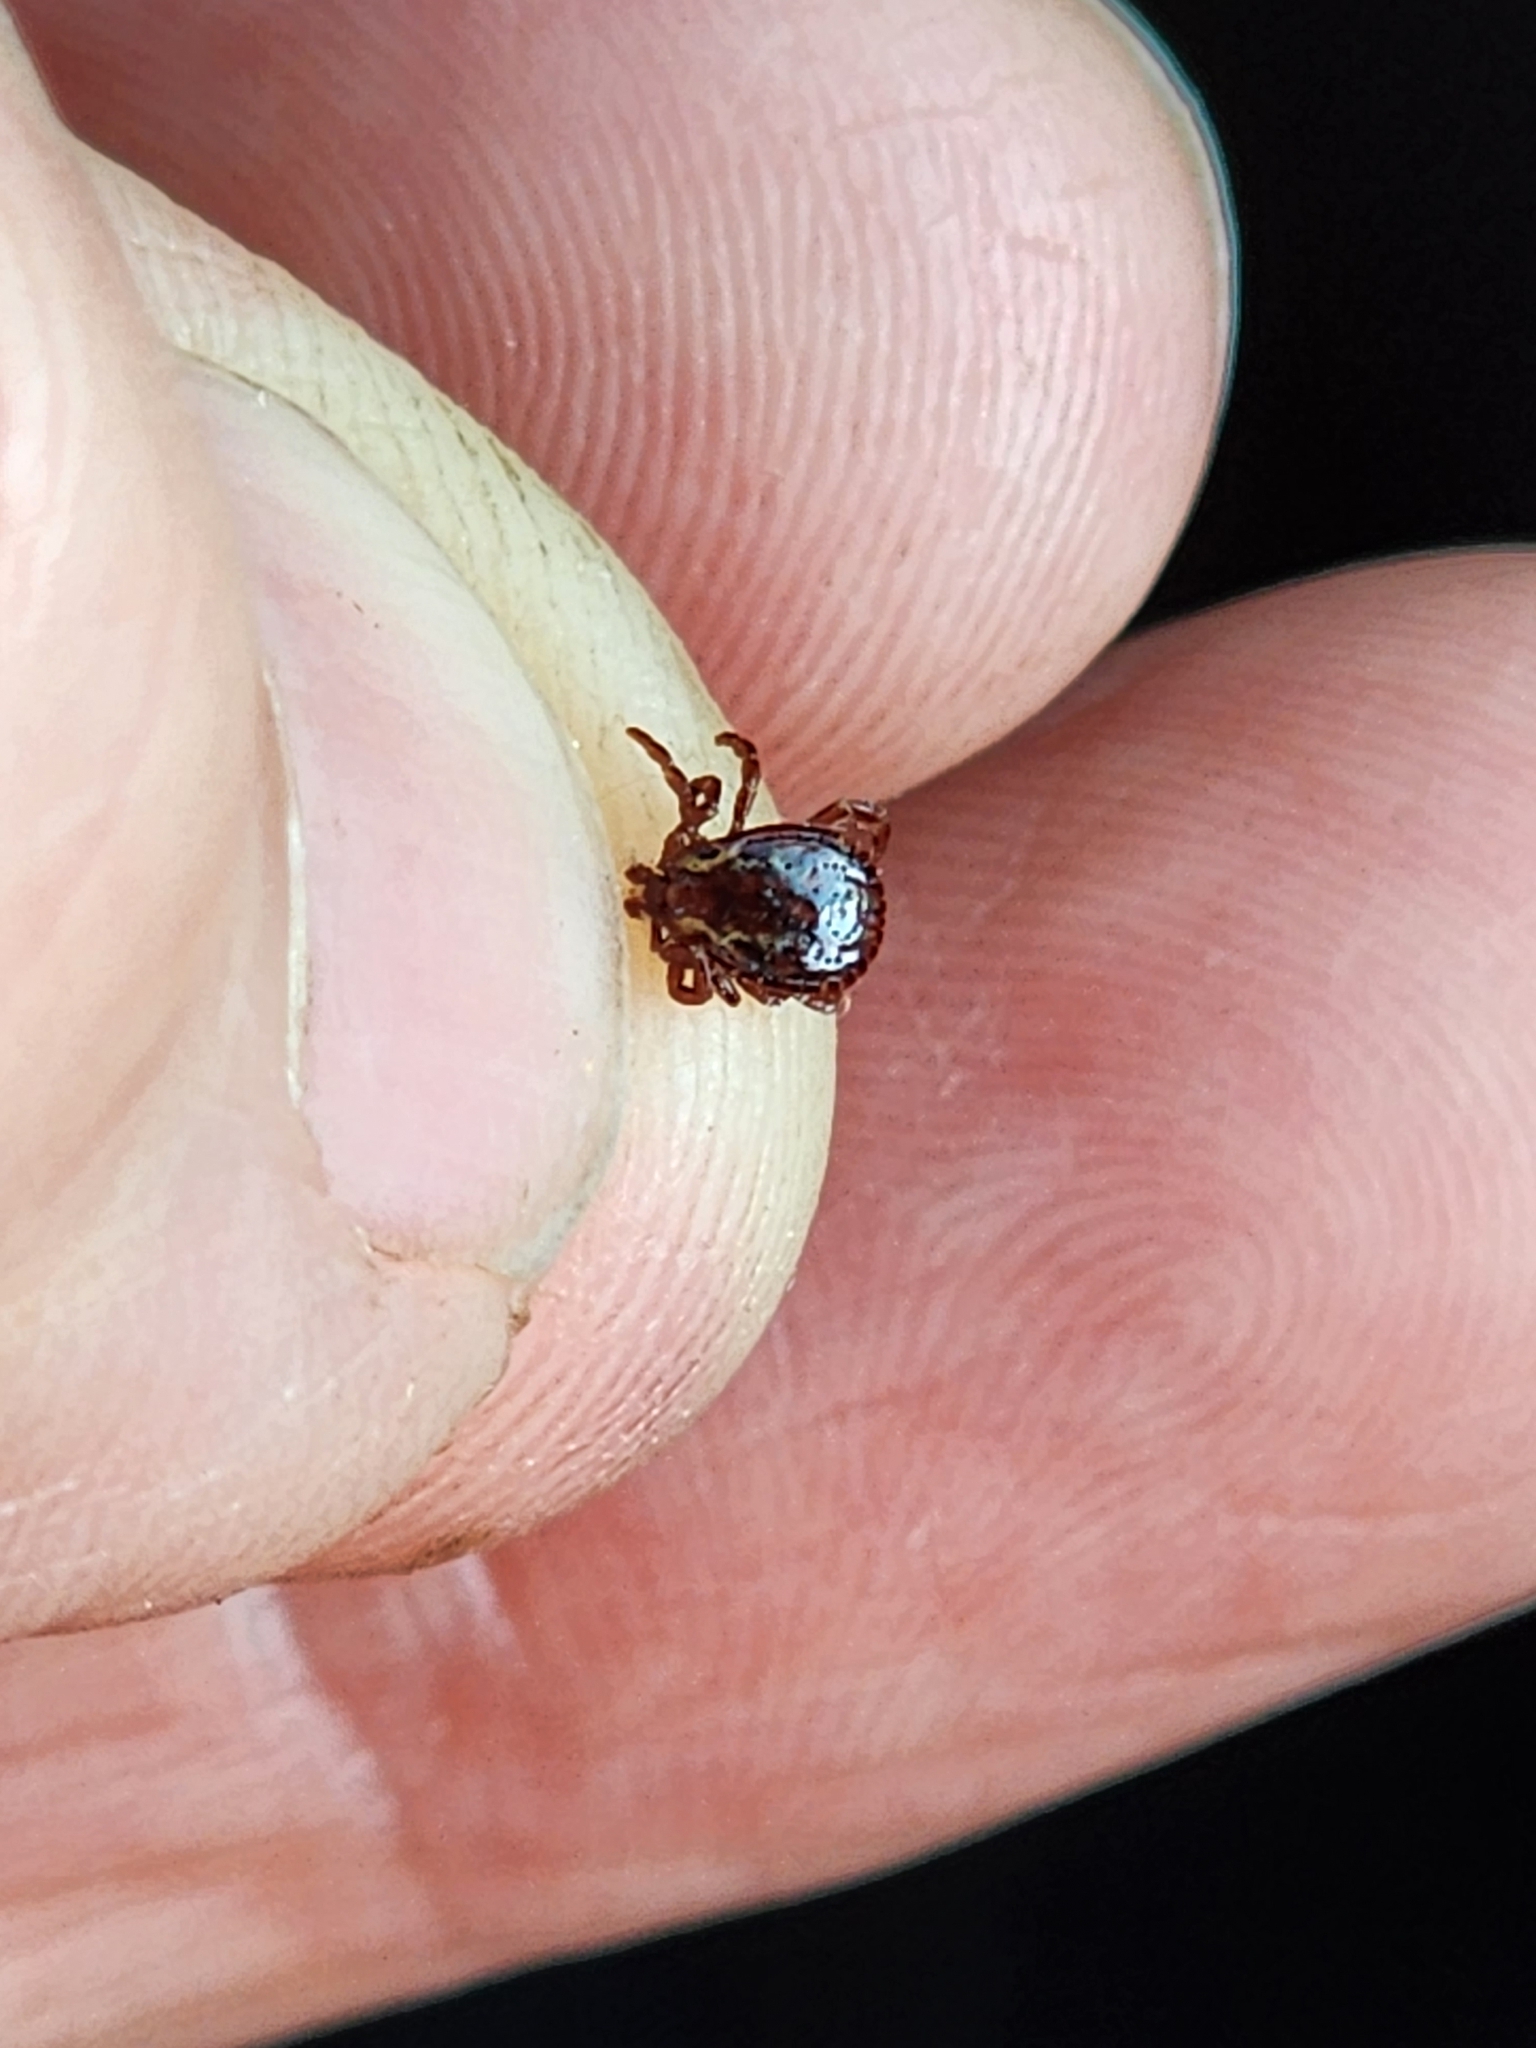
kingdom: Animalia
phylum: Arthropoda
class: Arachnida
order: Ixodida
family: Ixodidae
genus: Dermacentor
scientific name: Dermacentor variabilis
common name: American dog tick
